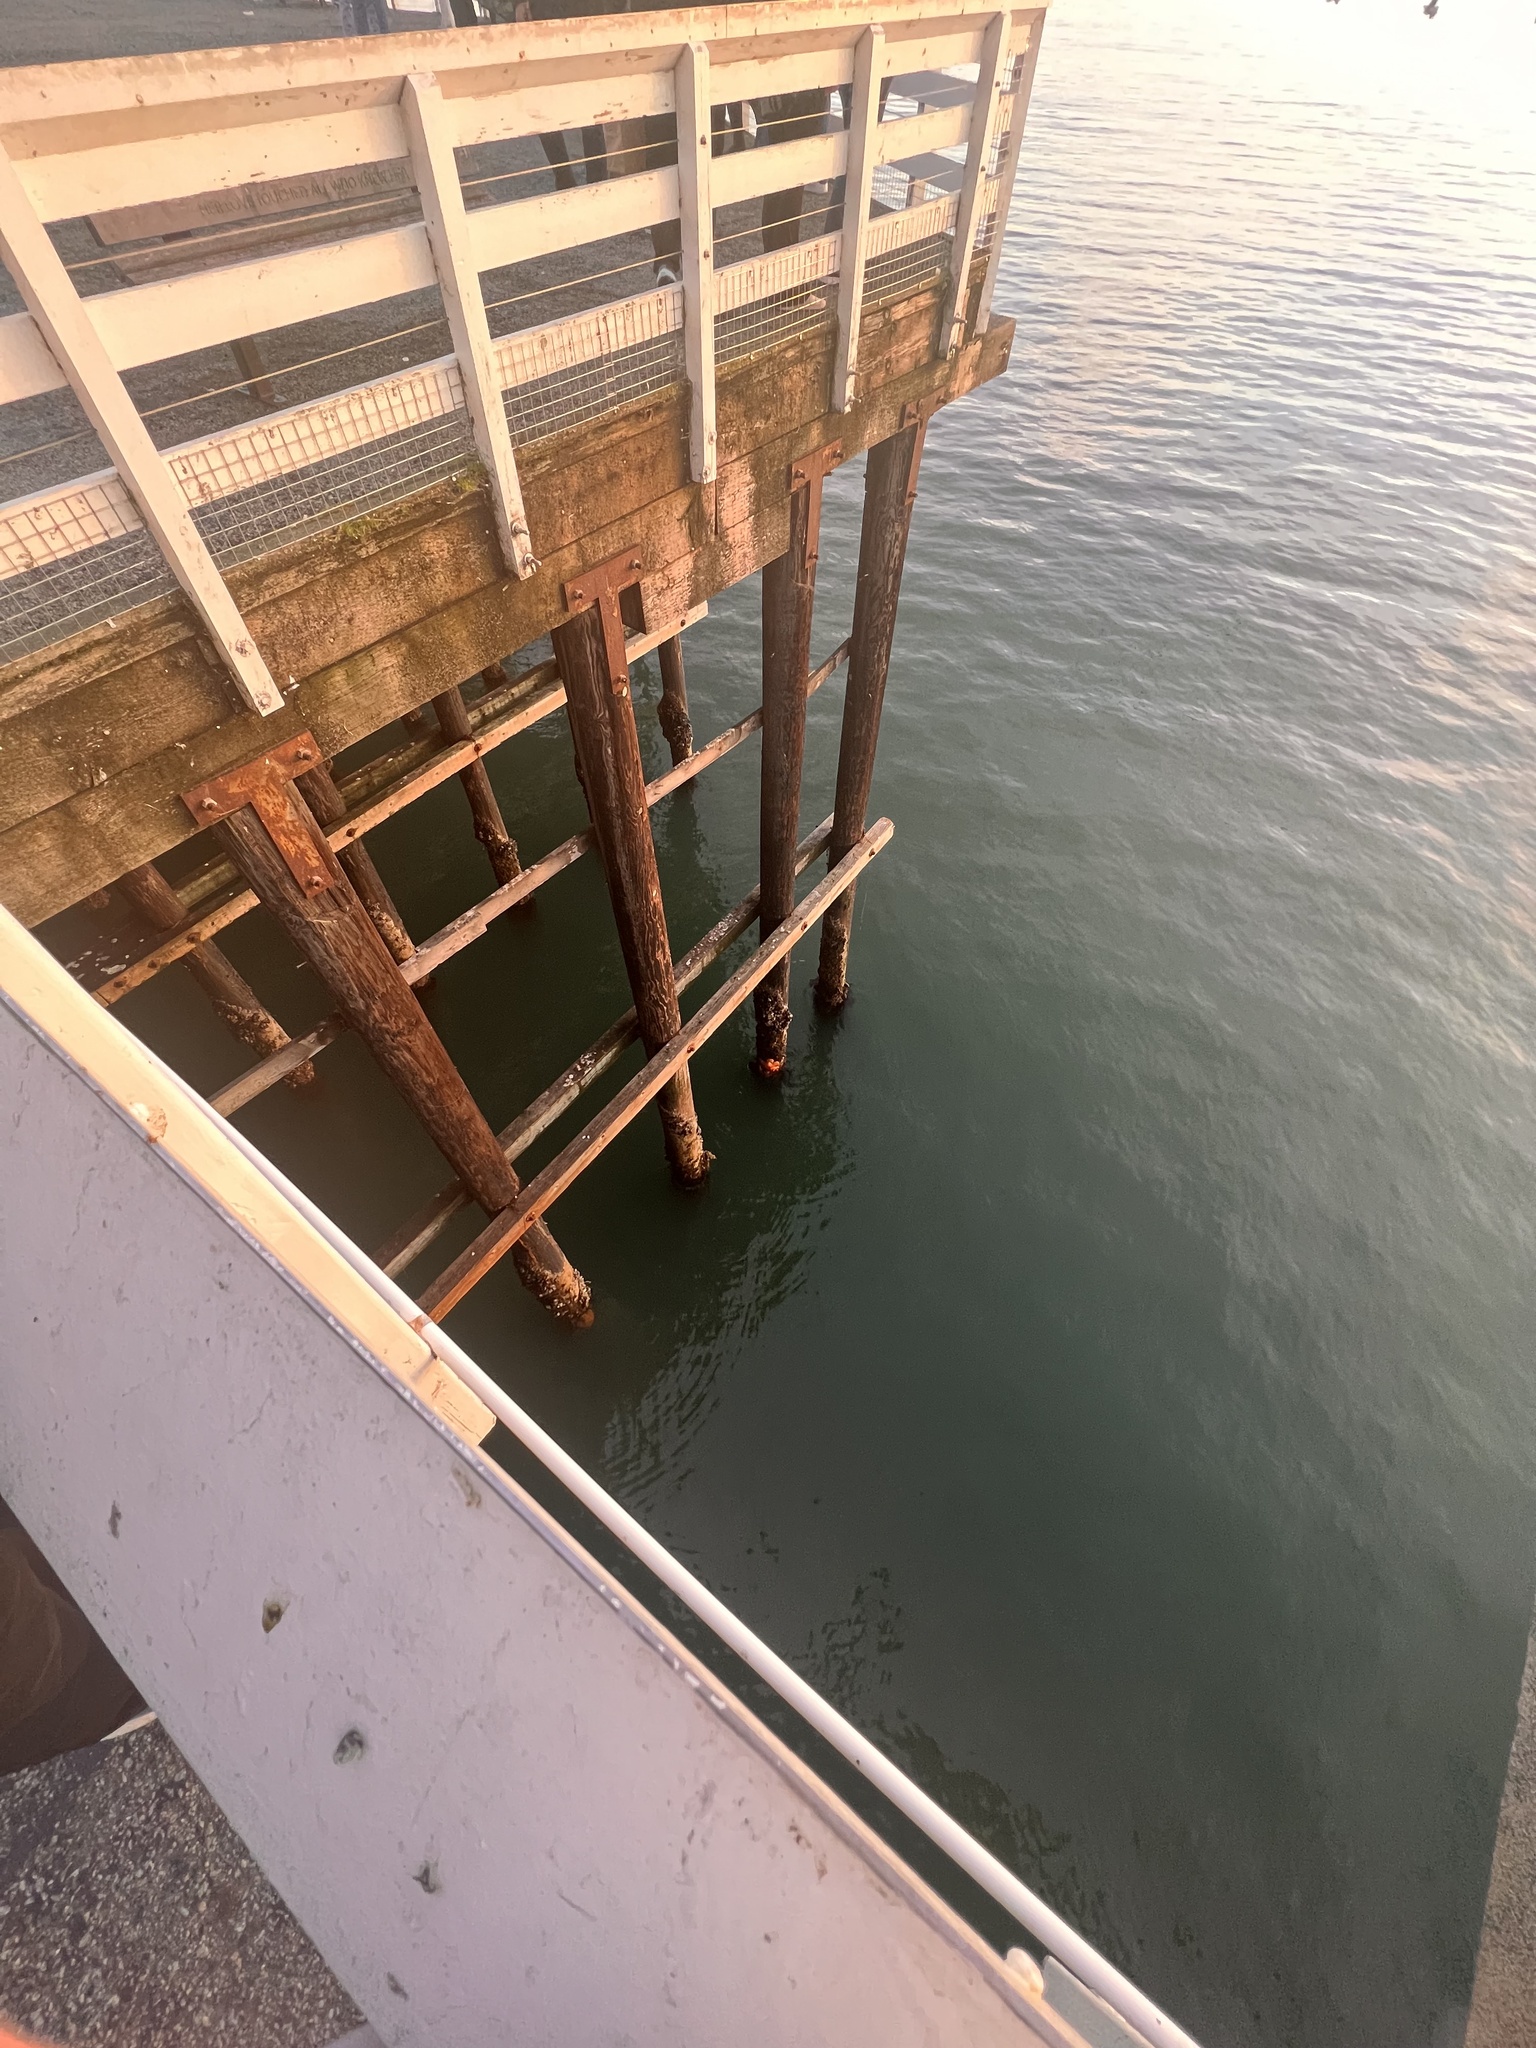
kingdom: Animalia
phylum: Echinodermata
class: Asteroidea
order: Forcipulatida
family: Asteriidae
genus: Pisaster
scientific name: Pisaster ochraceus
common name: Ochre stars
